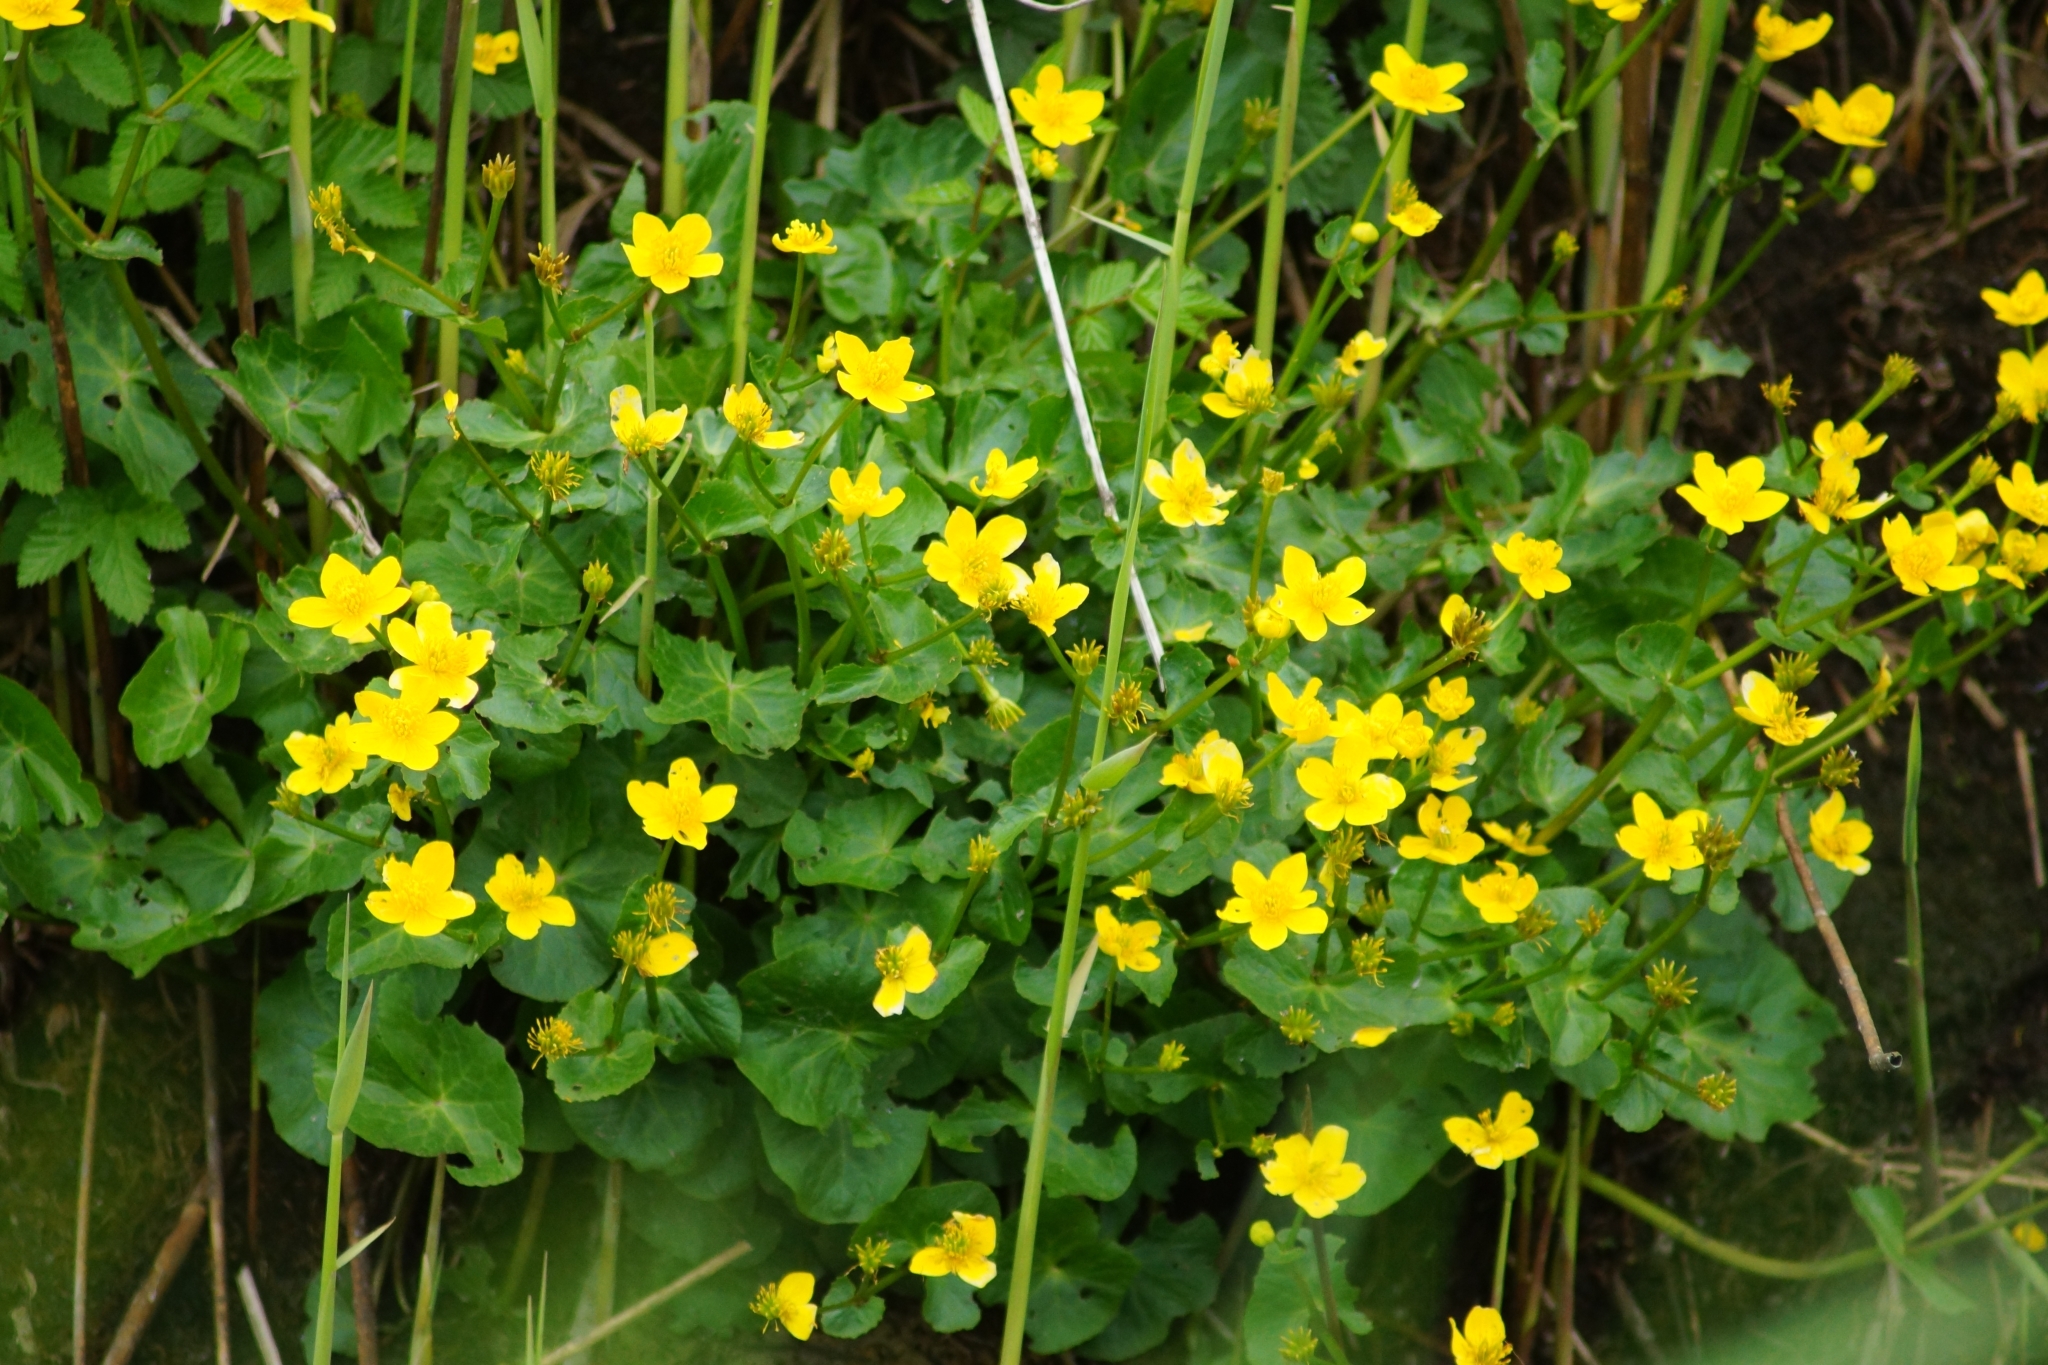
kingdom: Plantae
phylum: Tracheophyta
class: Magnoliopsida
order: Ranunculales
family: Ranunculaceae
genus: Caltha
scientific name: Caltha palustris
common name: Marsh marigold
